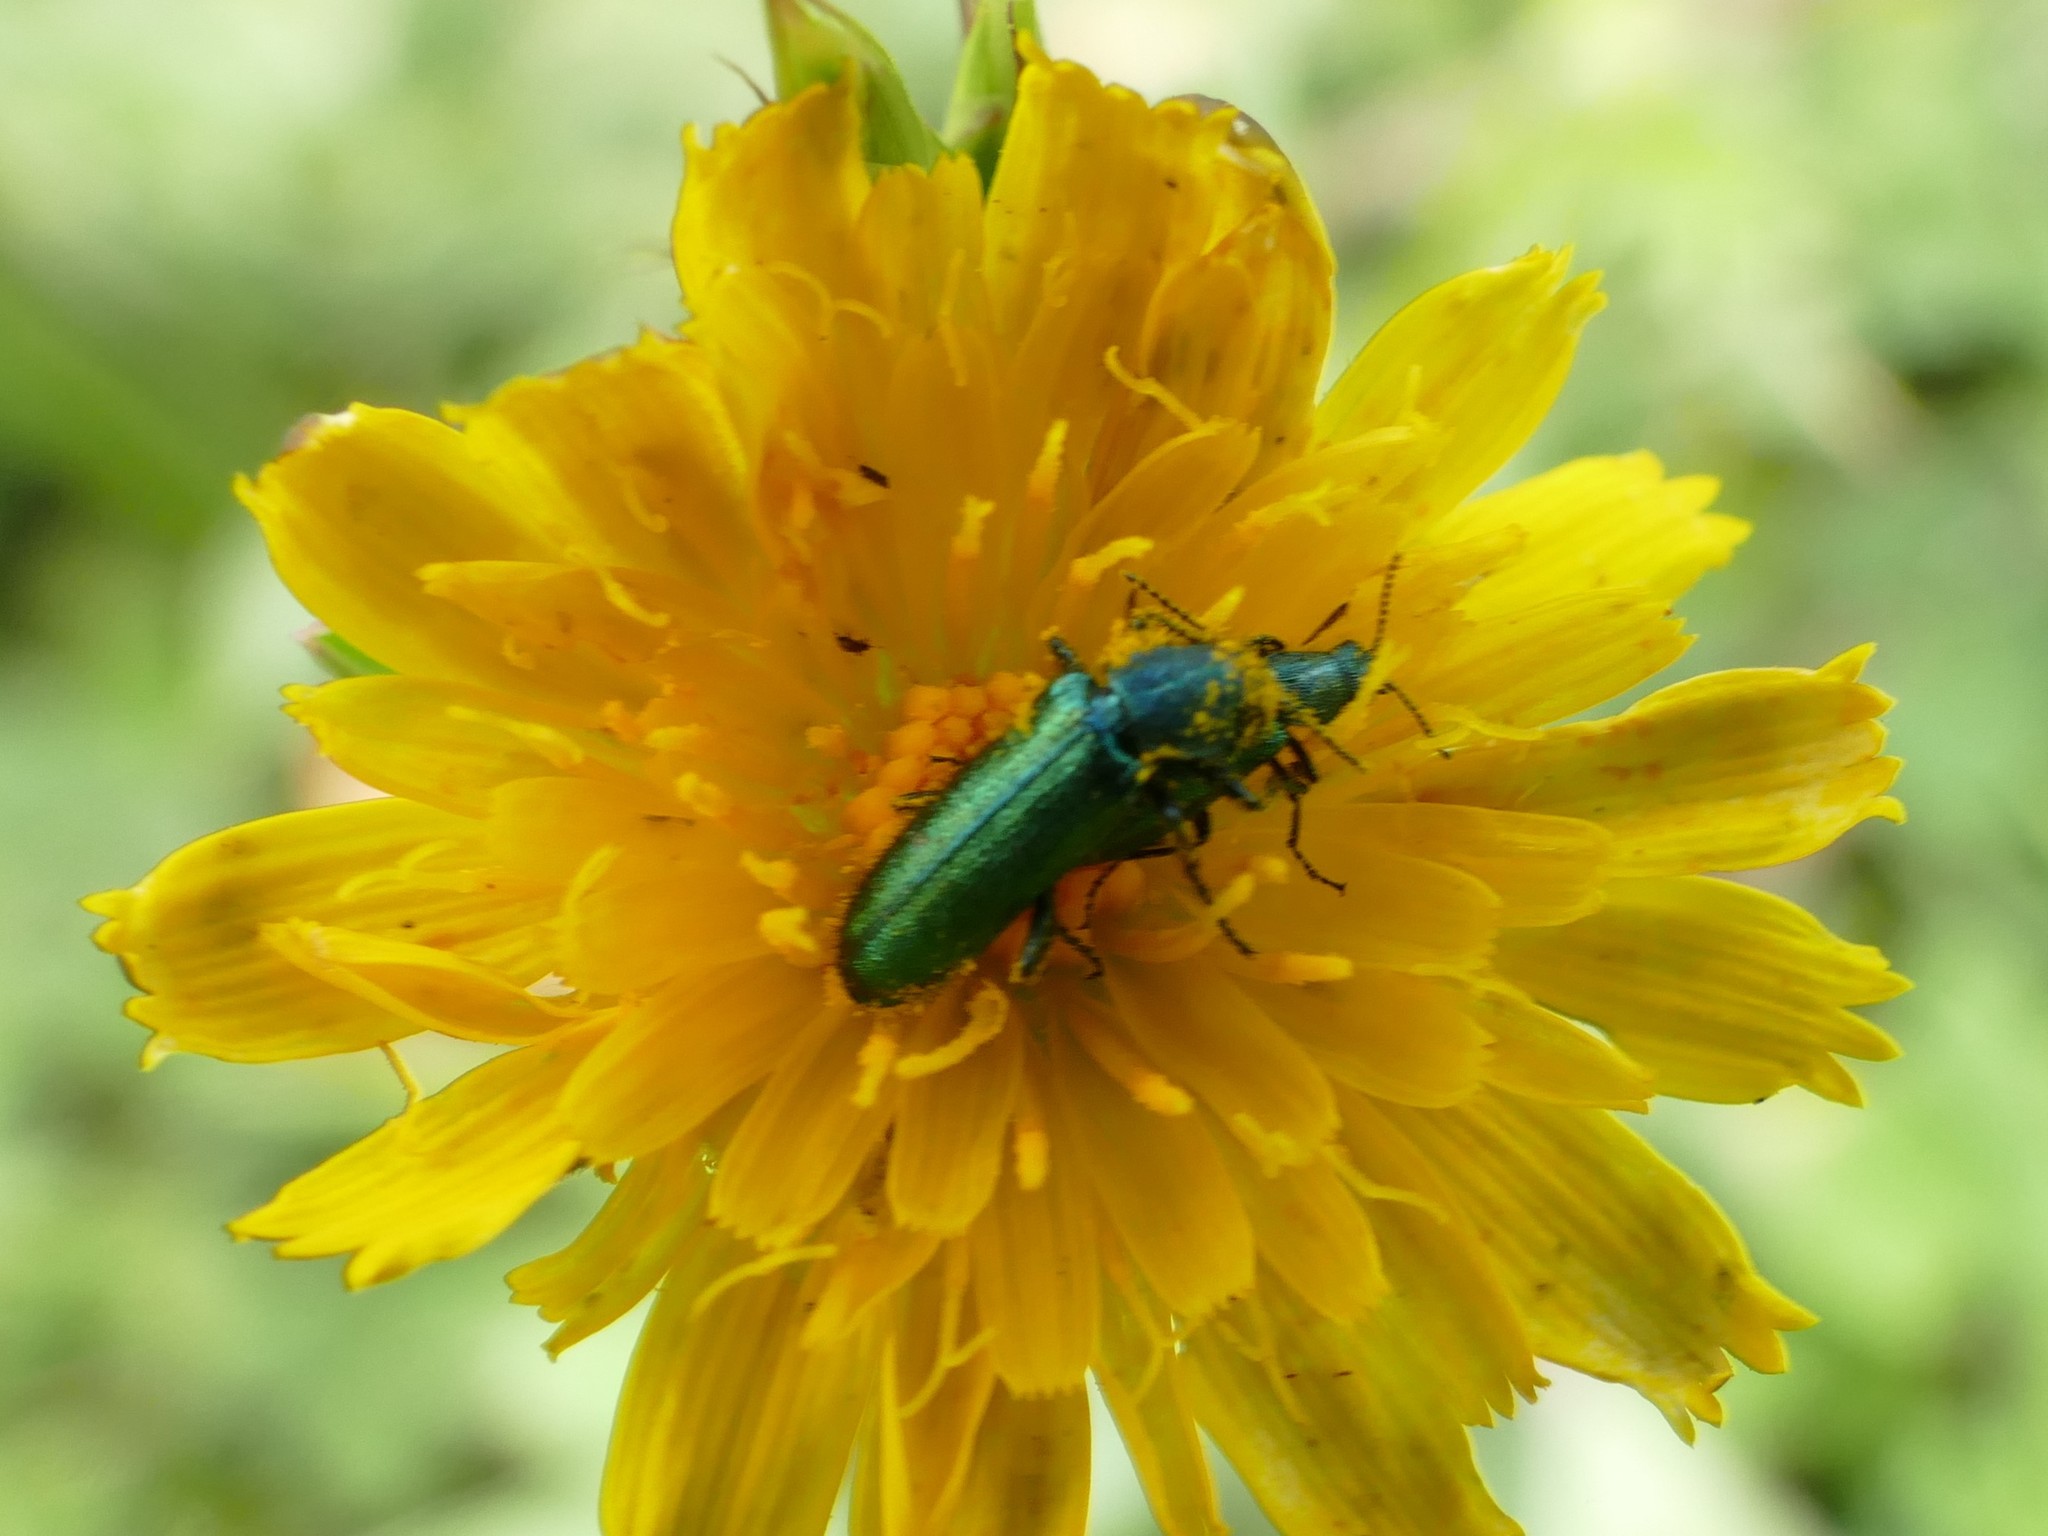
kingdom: Animalia
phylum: Arthropoda
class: Insecta
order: Coleoptera
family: Dasytidae
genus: Psilothrix
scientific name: Psilothrix viridicoerulea
